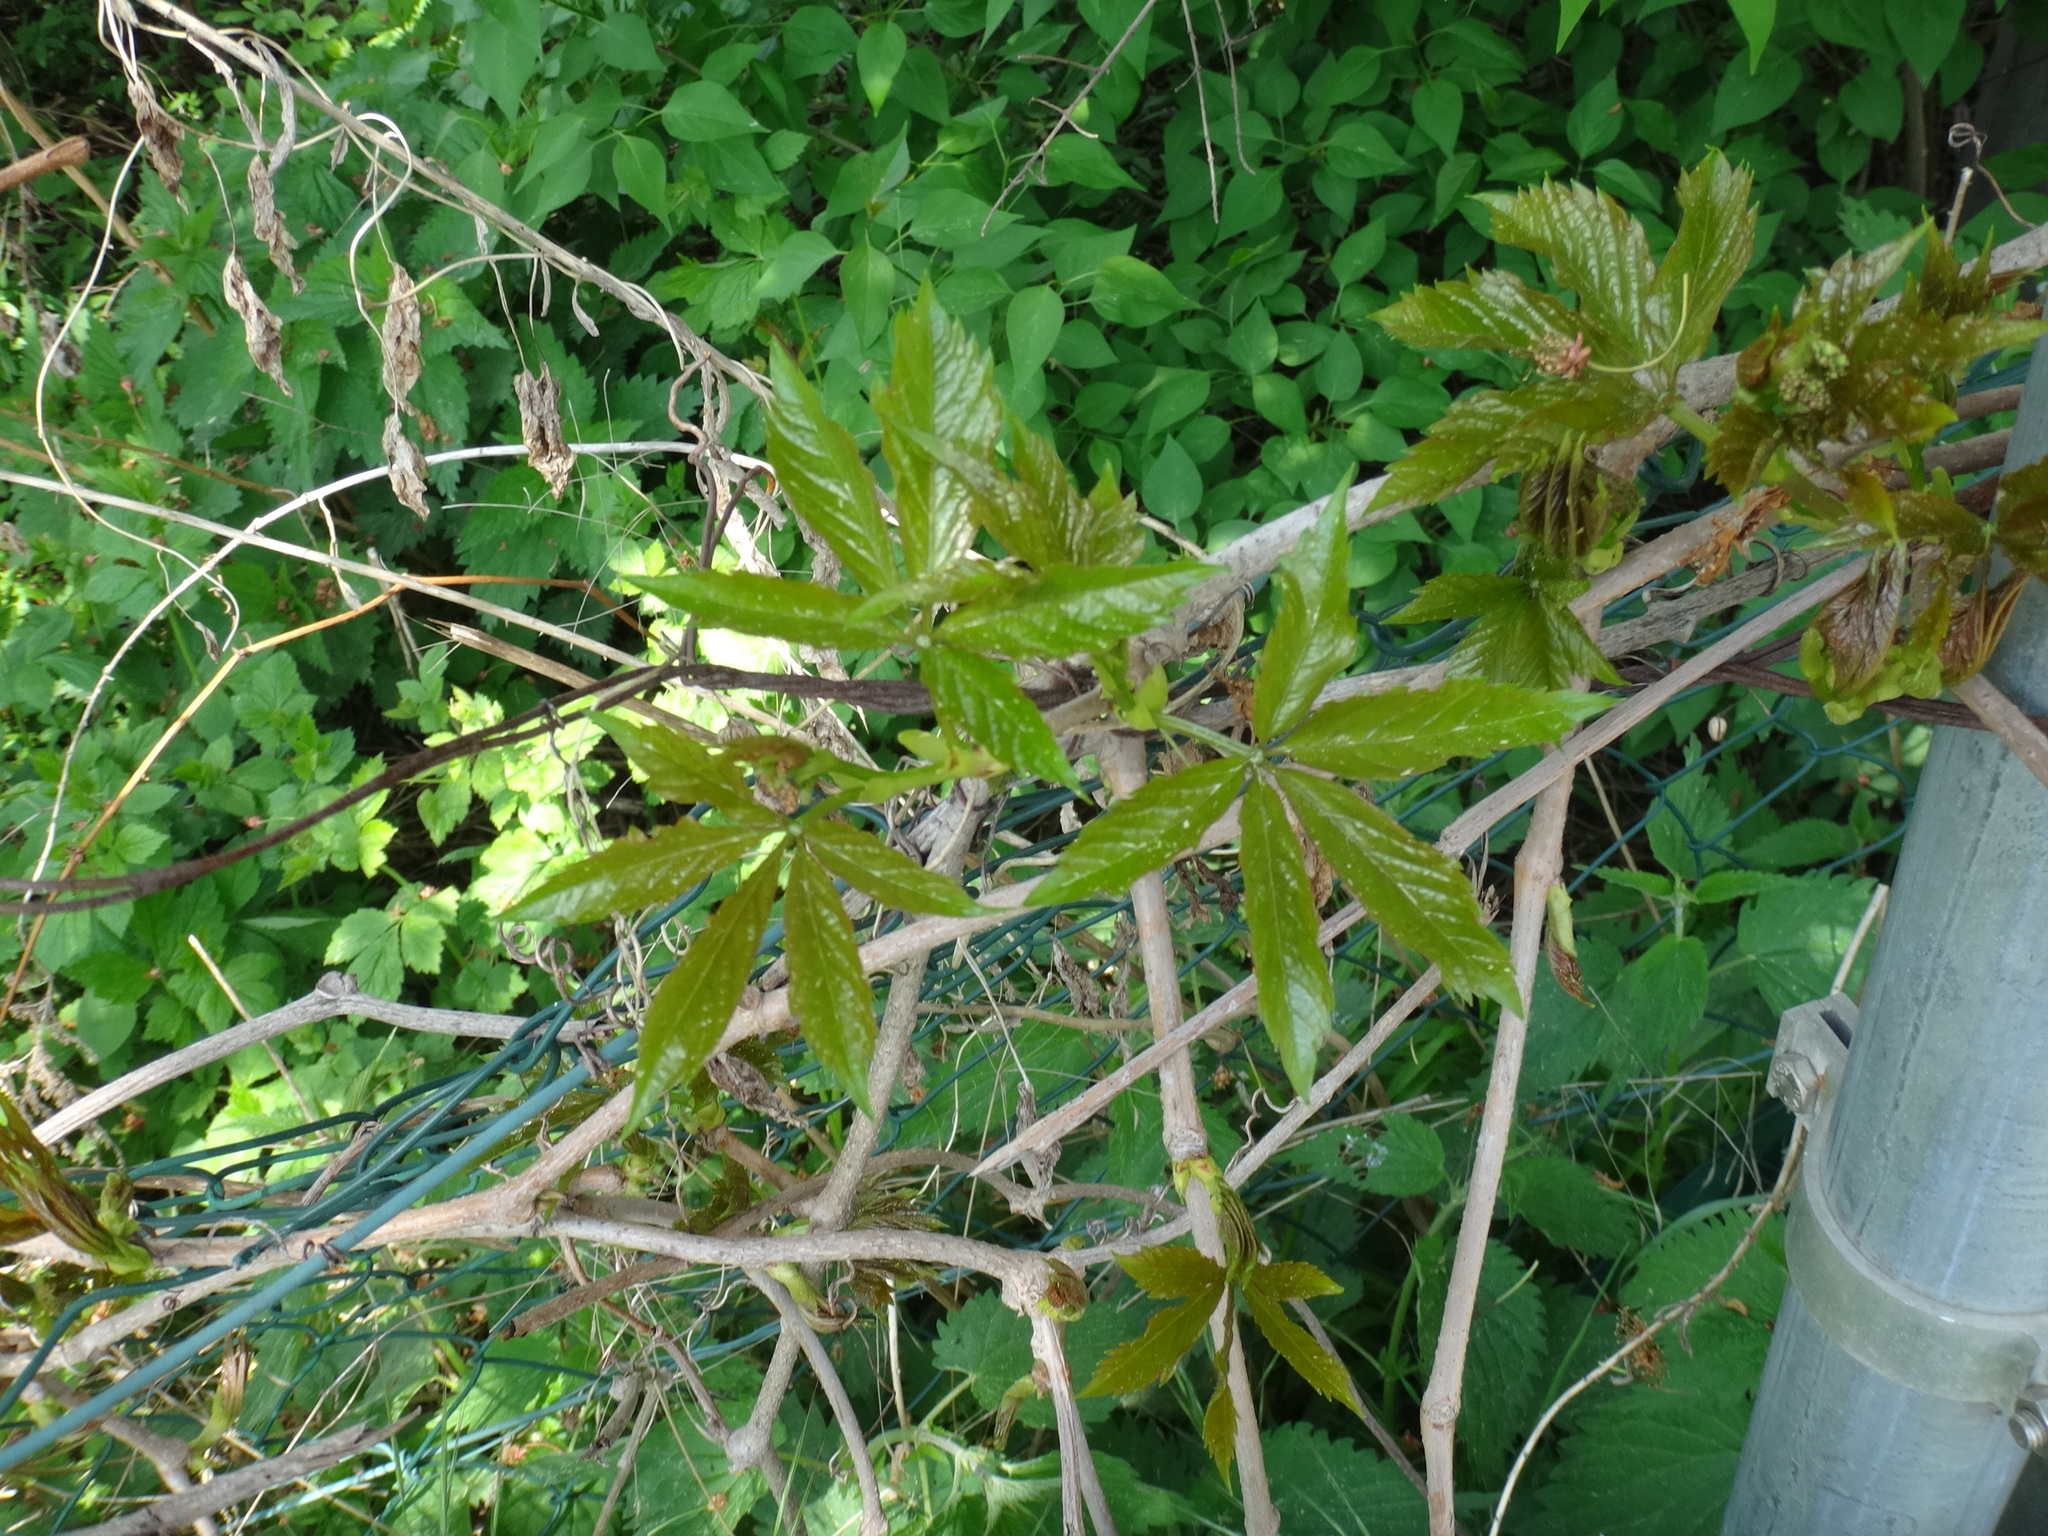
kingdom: Plantae
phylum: Tracheophyta
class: Magnoliopsida
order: Vitales
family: Vitaceae
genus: Parthenocissus
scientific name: Parthenocissus quinquefolia
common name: Virginia-creeper
